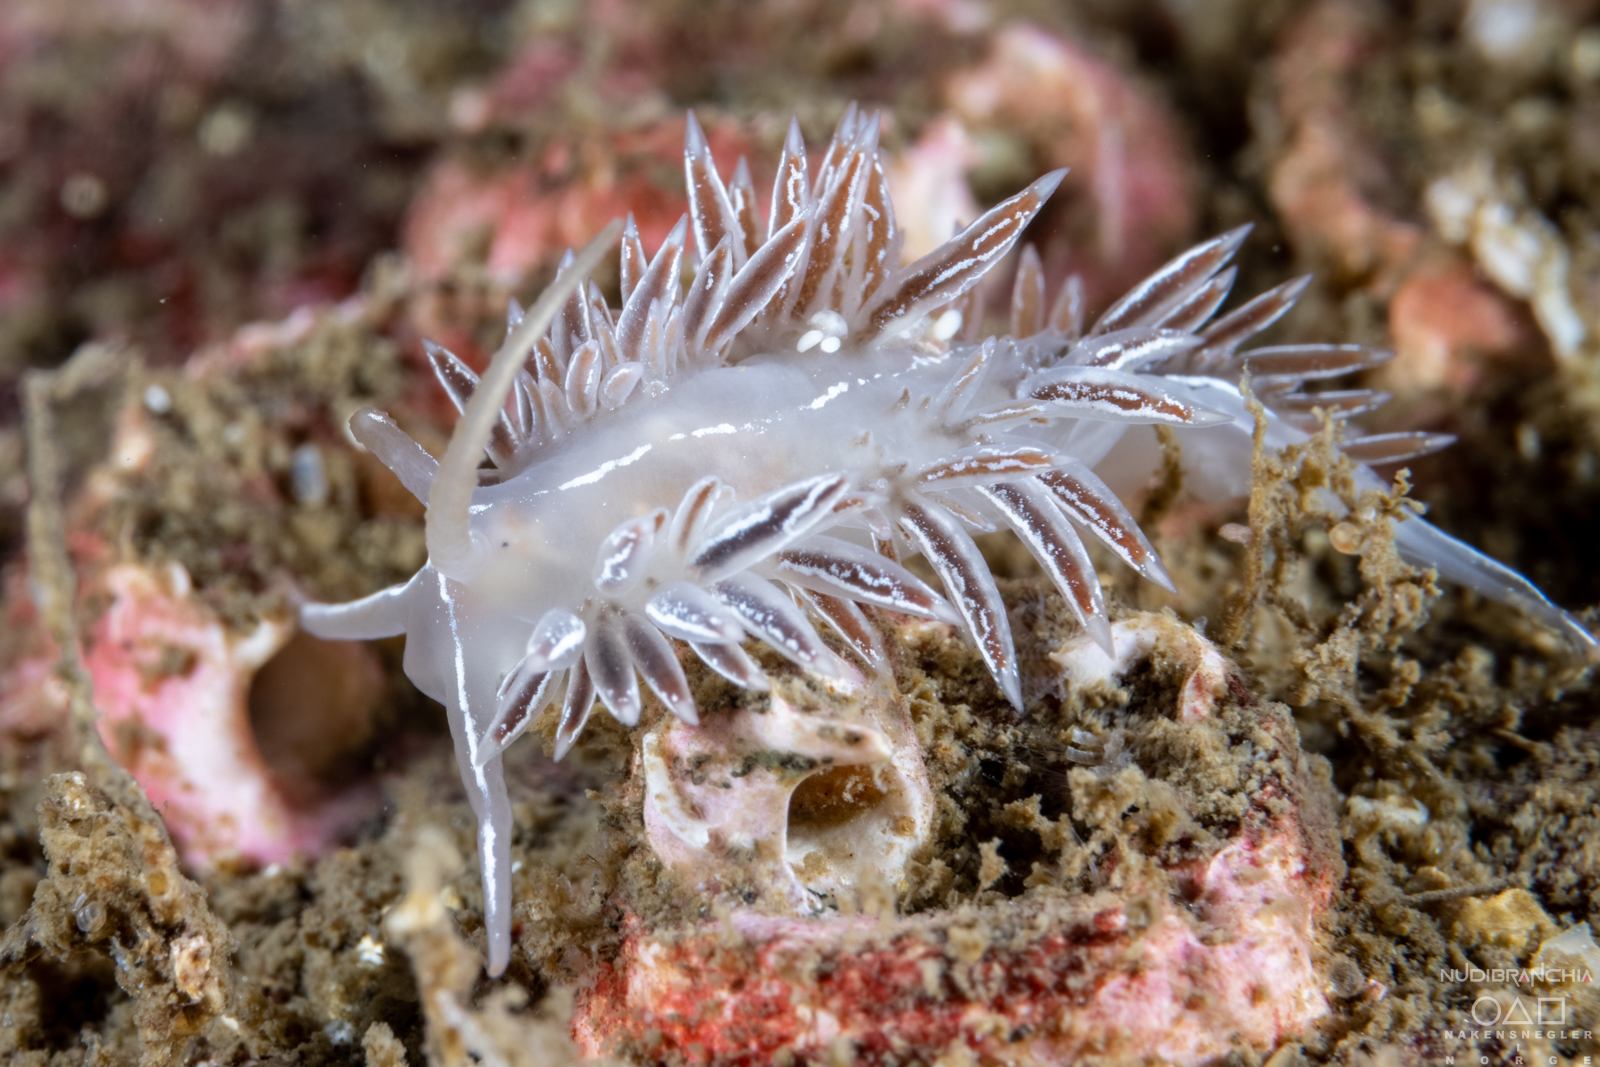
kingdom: Animalia
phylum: Mollusca
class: Gastropoda
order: Nudibranchia
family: Coryphellidae
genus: Coryphella
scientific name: Coryphella chriskaugei
